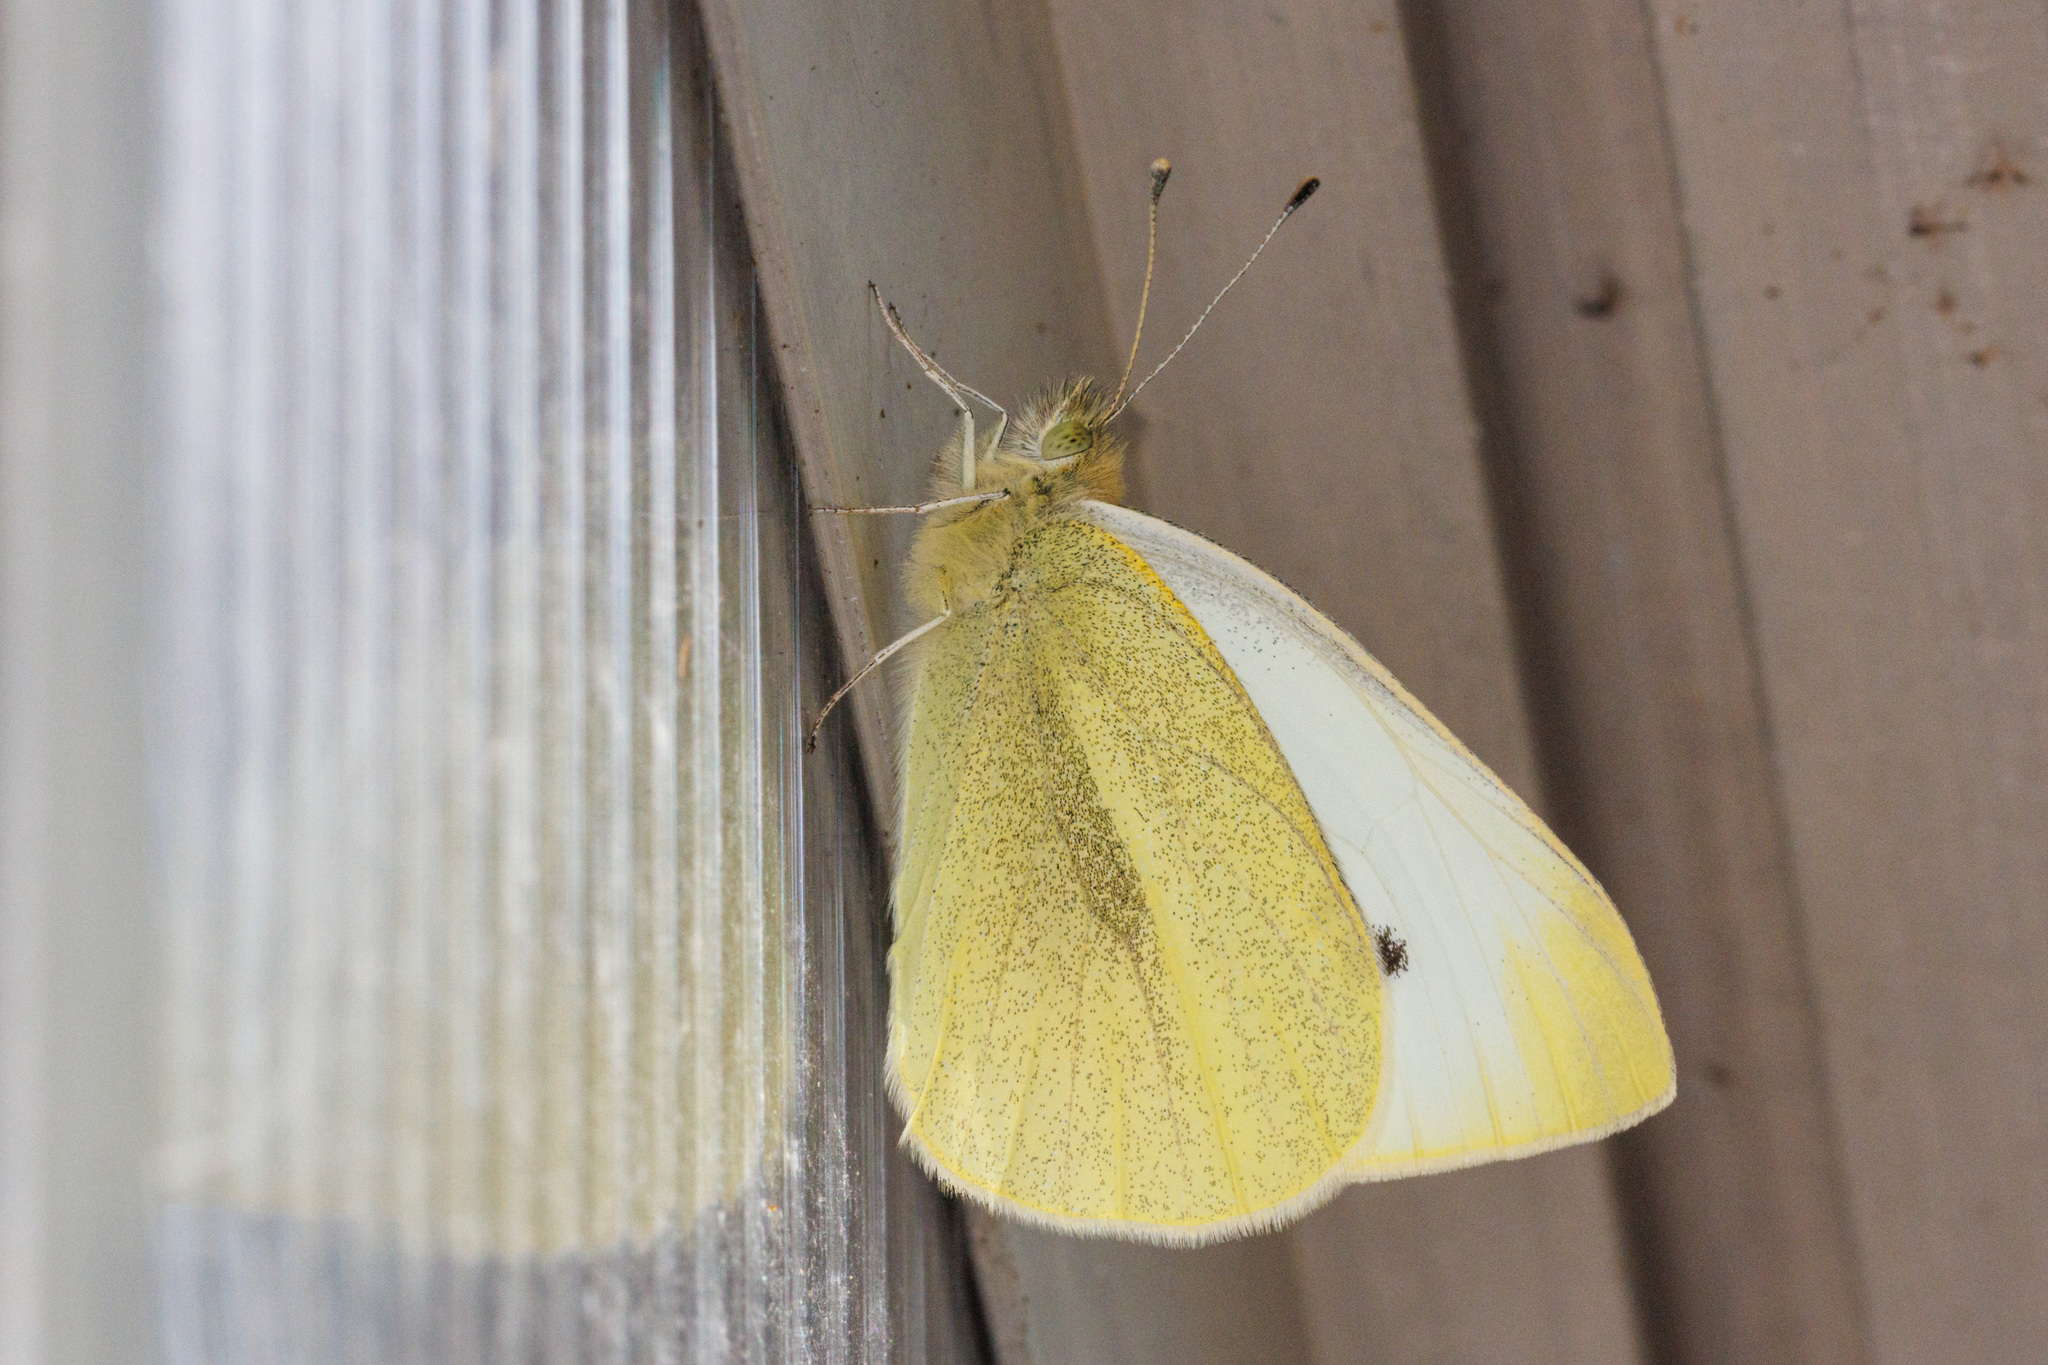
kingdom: Animalia
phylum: Arthropoda
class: Insecta
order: Lepidoptera
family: Pieridae
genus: Pieris
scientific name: Pieris rapae
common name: Small white
